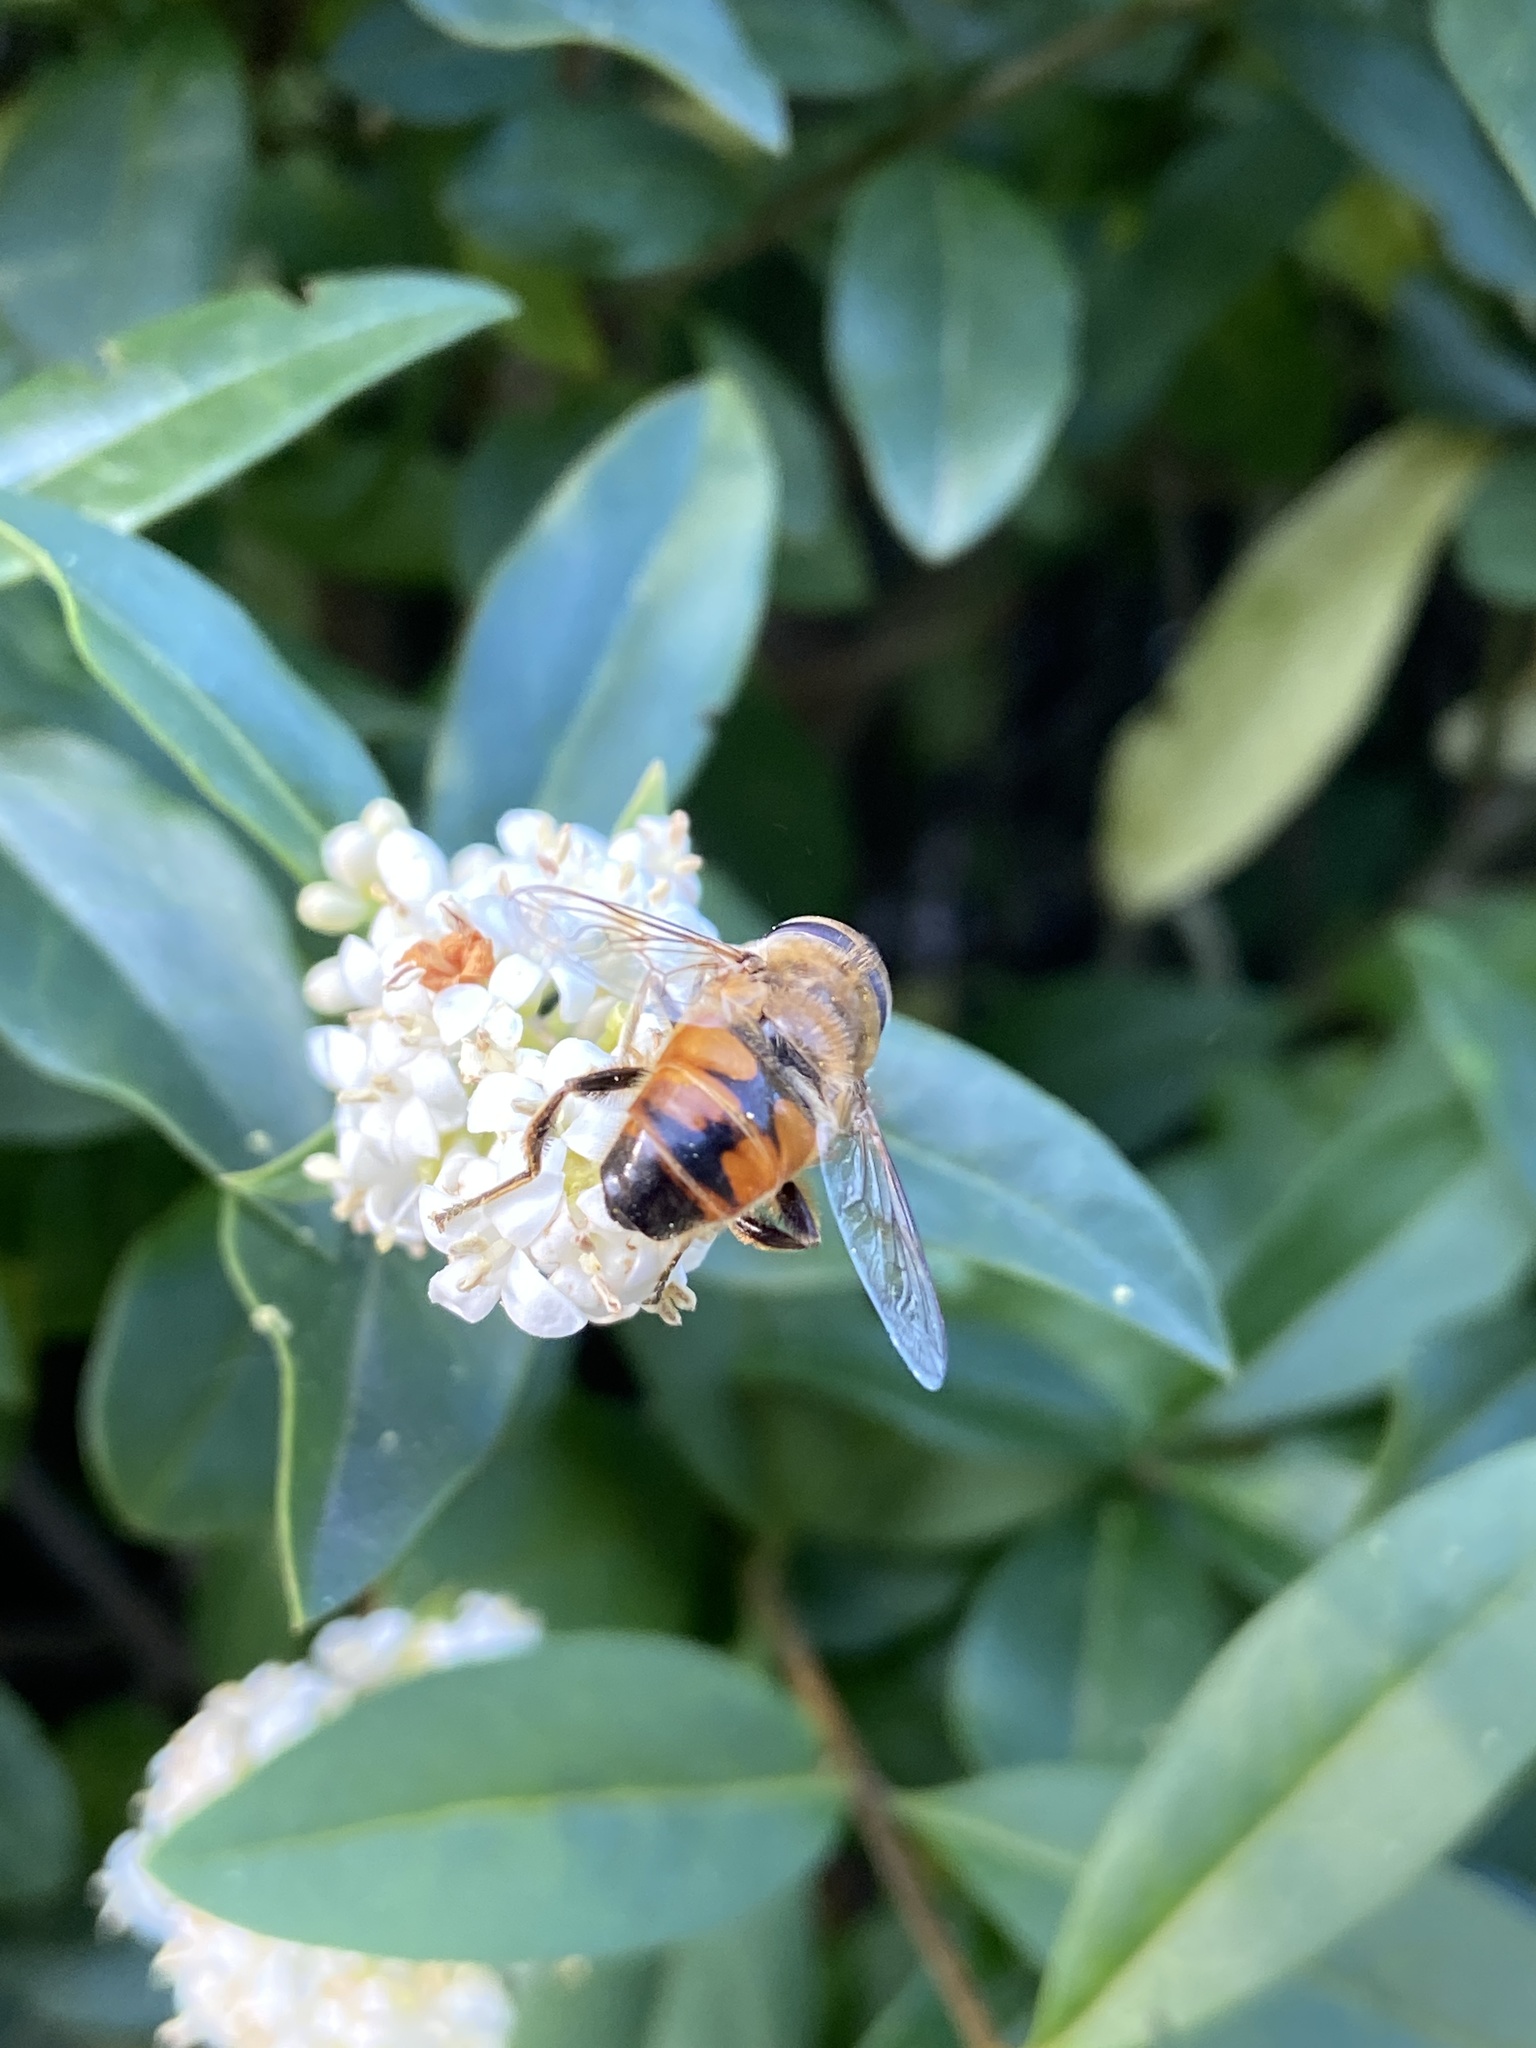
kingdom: Animalia
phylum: Arthropoda
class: Insecta
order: Diptera
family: Syrphidae
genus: Eristalis
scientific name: Eristalis tenax
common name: Drone fly
